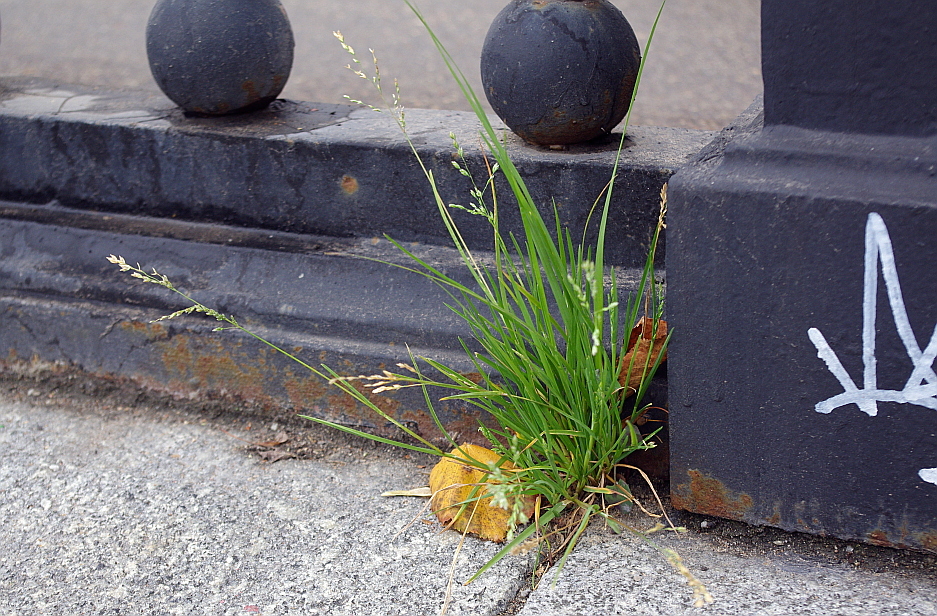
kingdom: Plantae
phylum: Tracheophyta
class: Liliopsida
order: Poales
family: Poaceae
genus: Poa
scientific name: Poa annua
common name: Annual bluegrass
